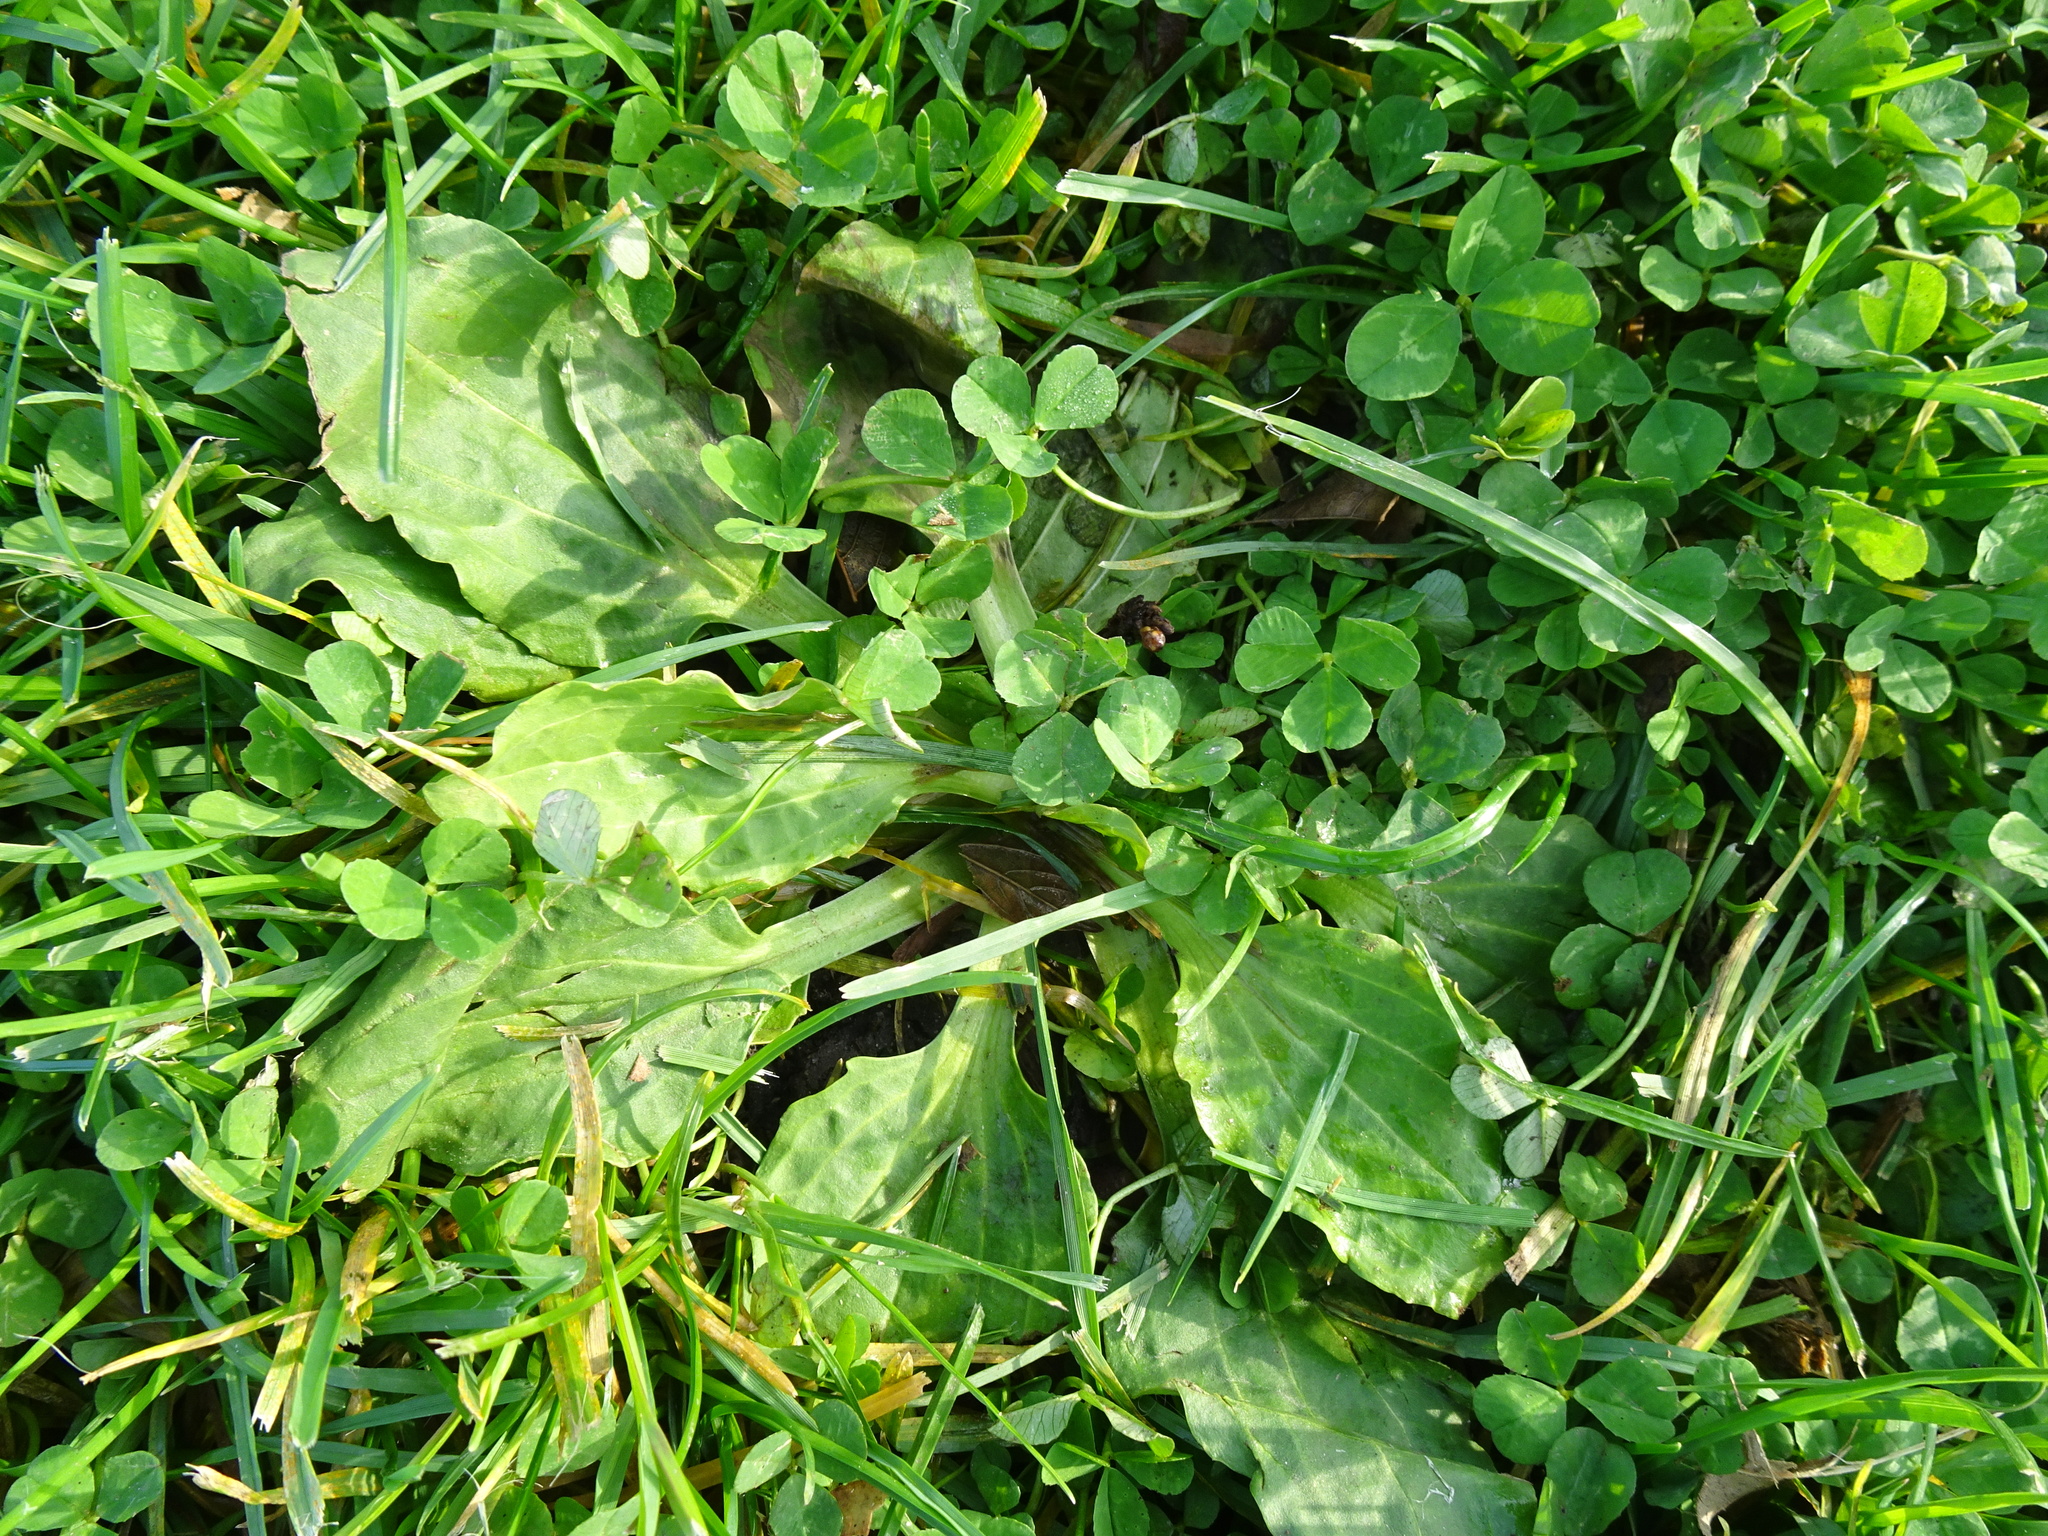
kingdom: Plantae
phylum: Tracheophyta
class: Magnoliopsida
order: Lamiales
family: Plantaginaceae
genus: Plantago
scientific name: Plantago major
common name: Common plantain
